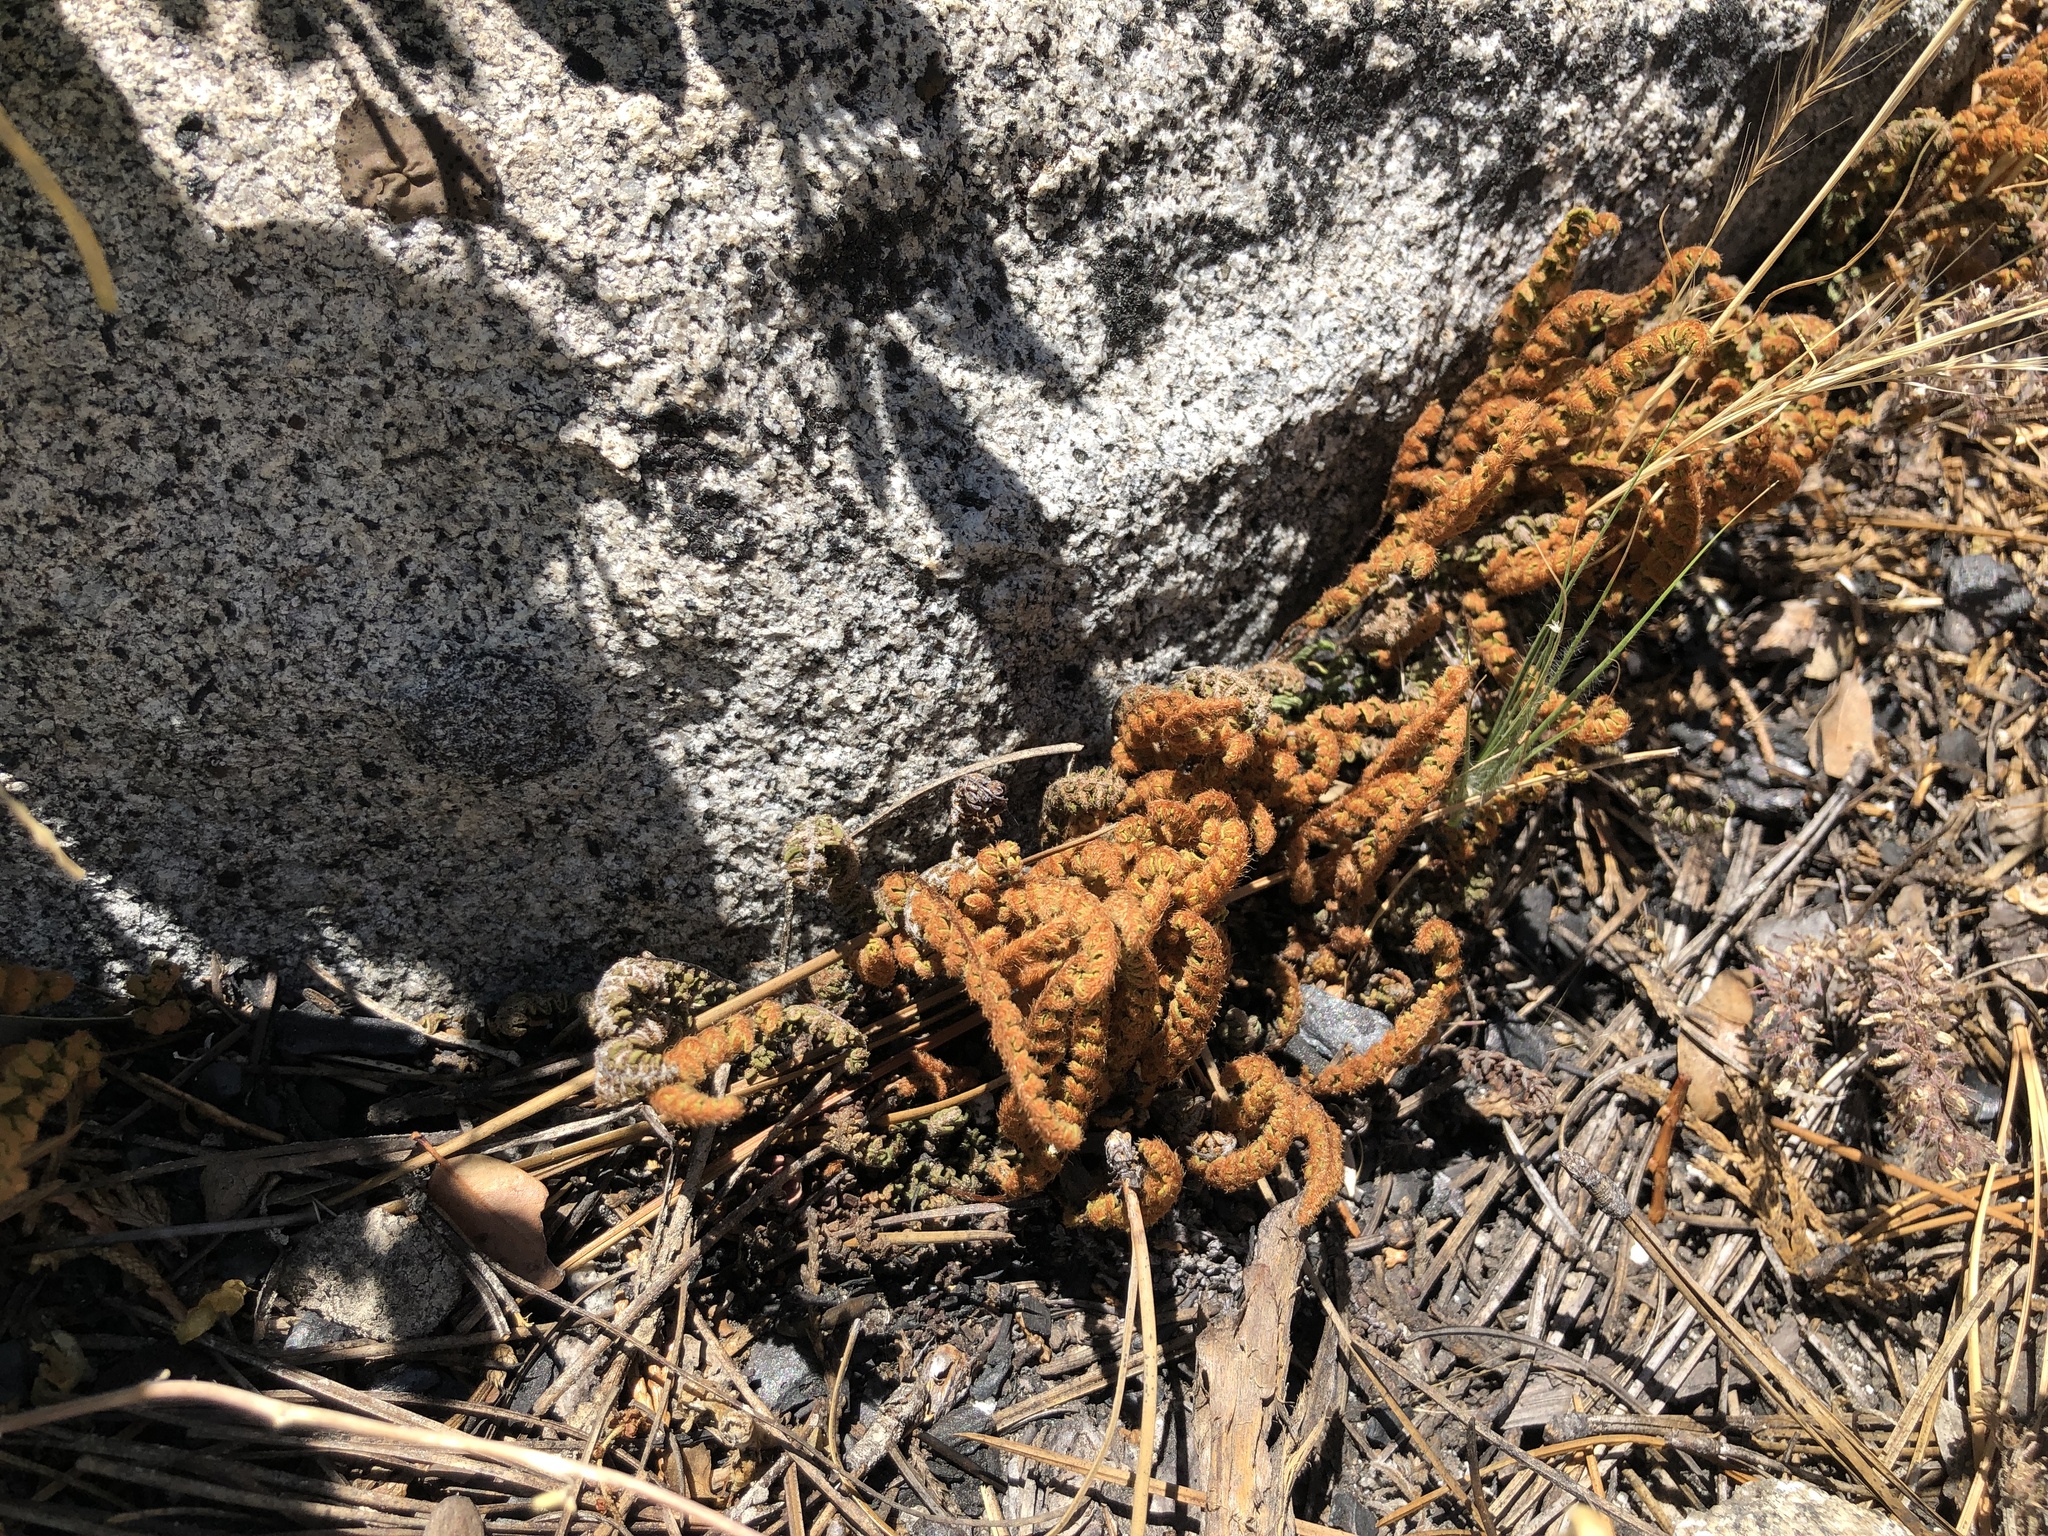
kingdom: Plantae
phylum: Tracheophyta
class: Polypodiopsida
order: Polypodiales
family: Pteridaceae
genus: Myriopteris
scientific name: Myriopteris gracillima
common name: Lace fern
